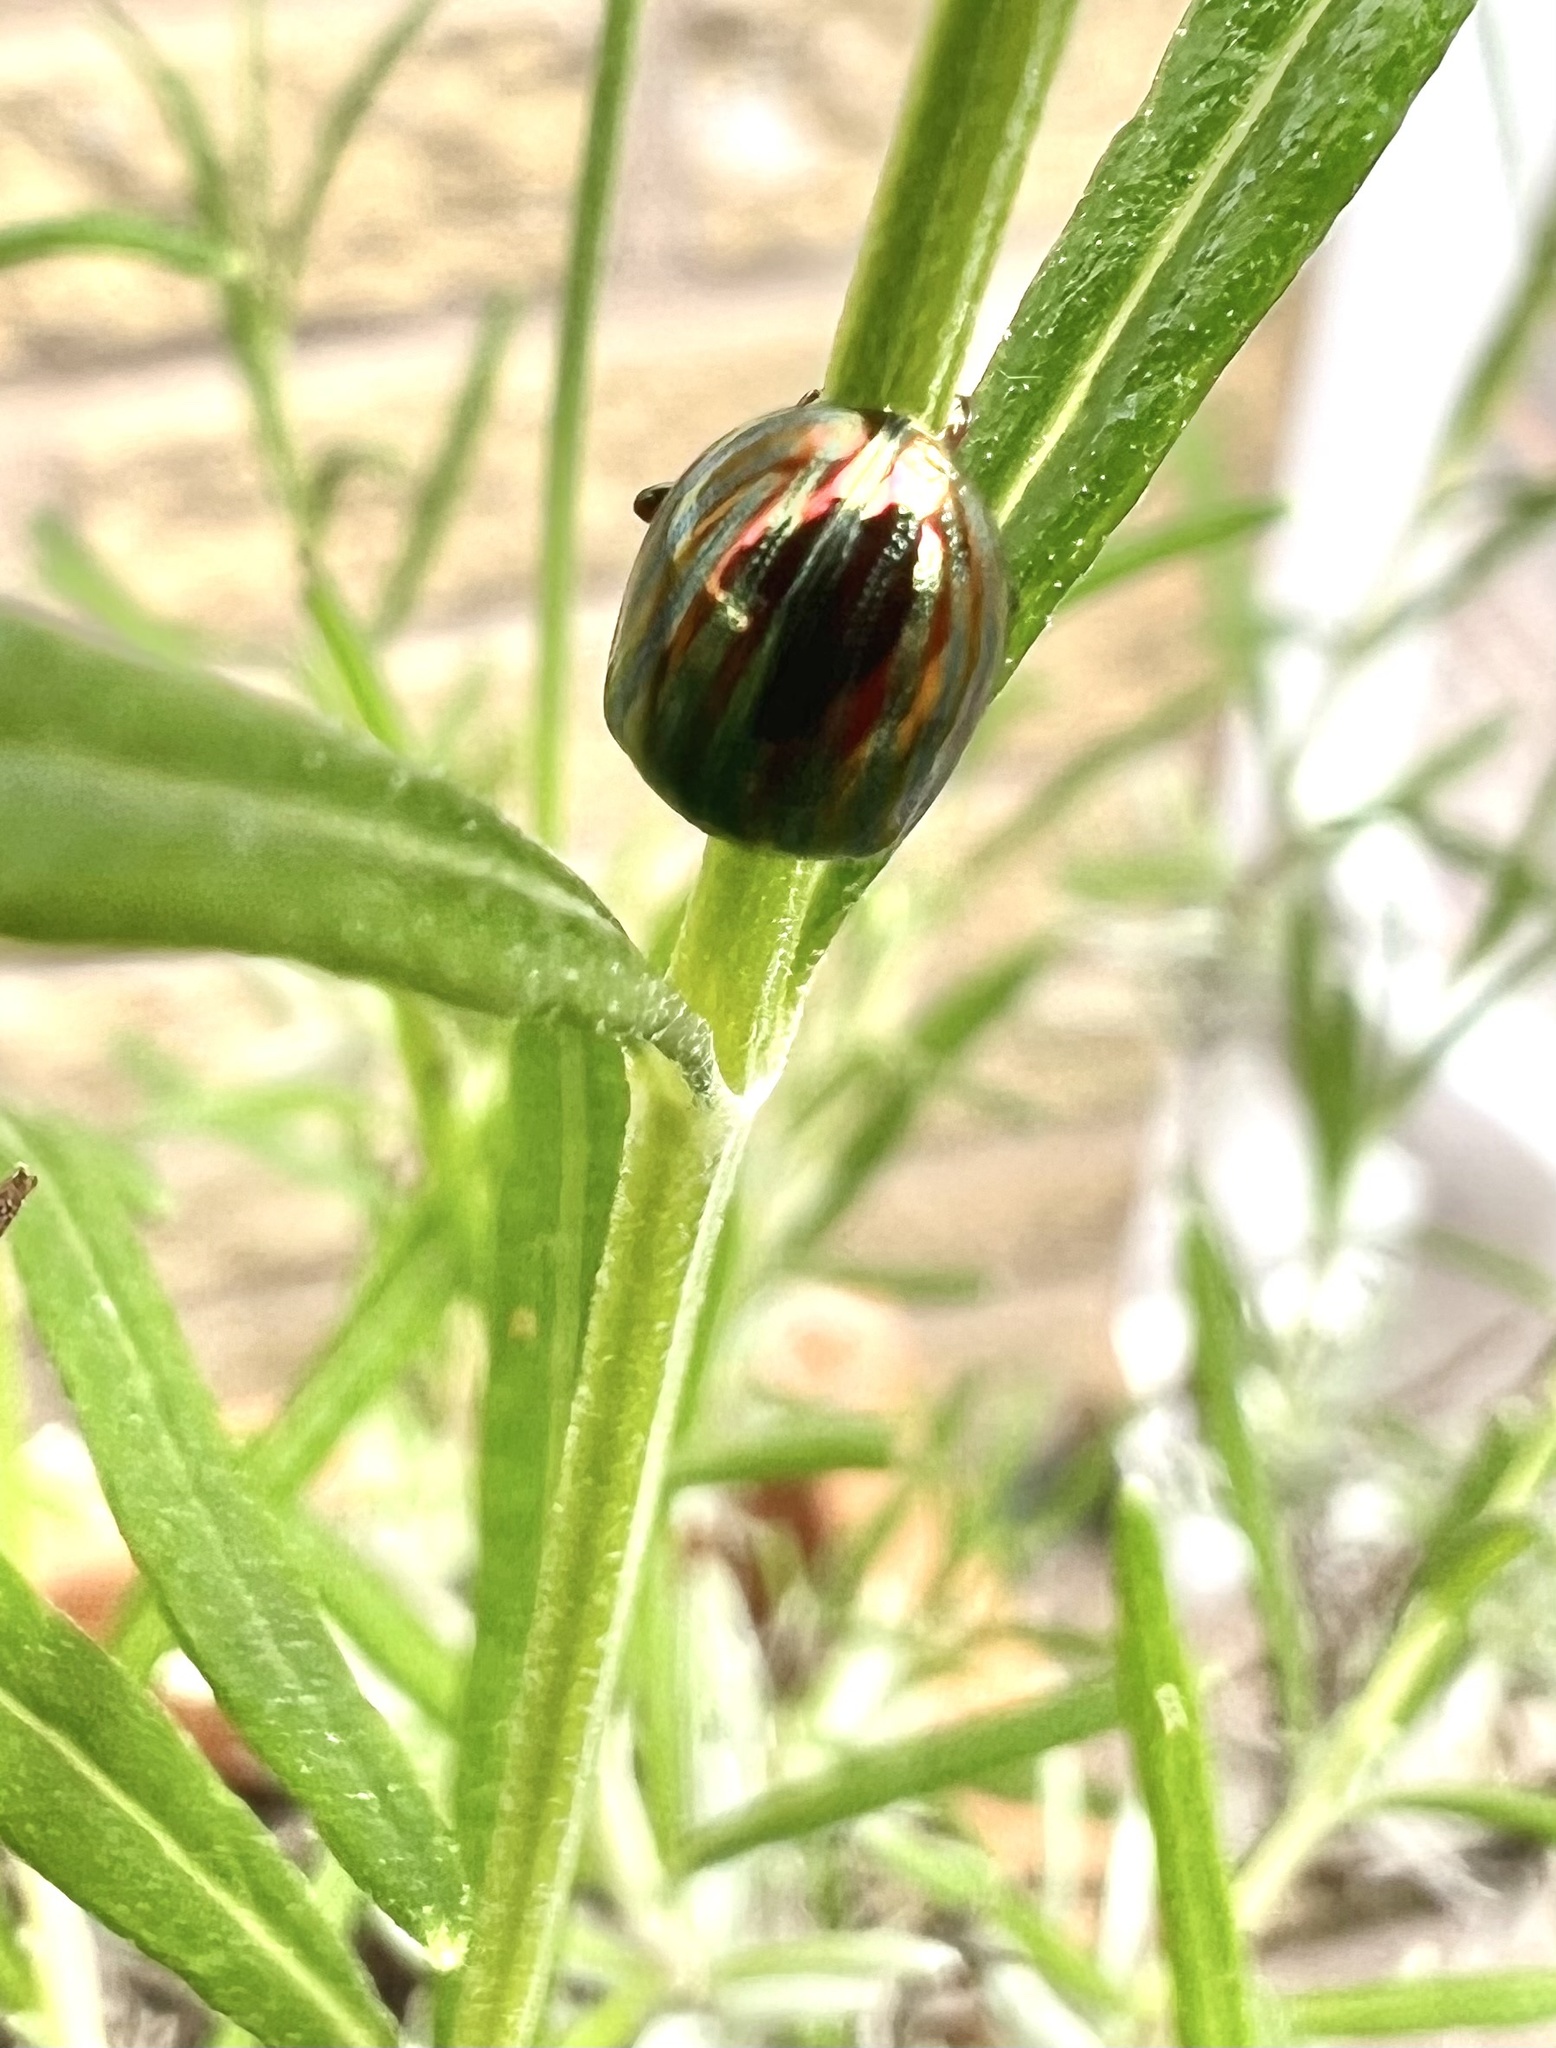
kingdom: Animalia
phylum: Arthropoda
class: Insecta
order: Coleoptera
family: Chrysomelidae
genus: Chrysolina
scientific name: Chrysolina americana
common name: Rosemary beetle
